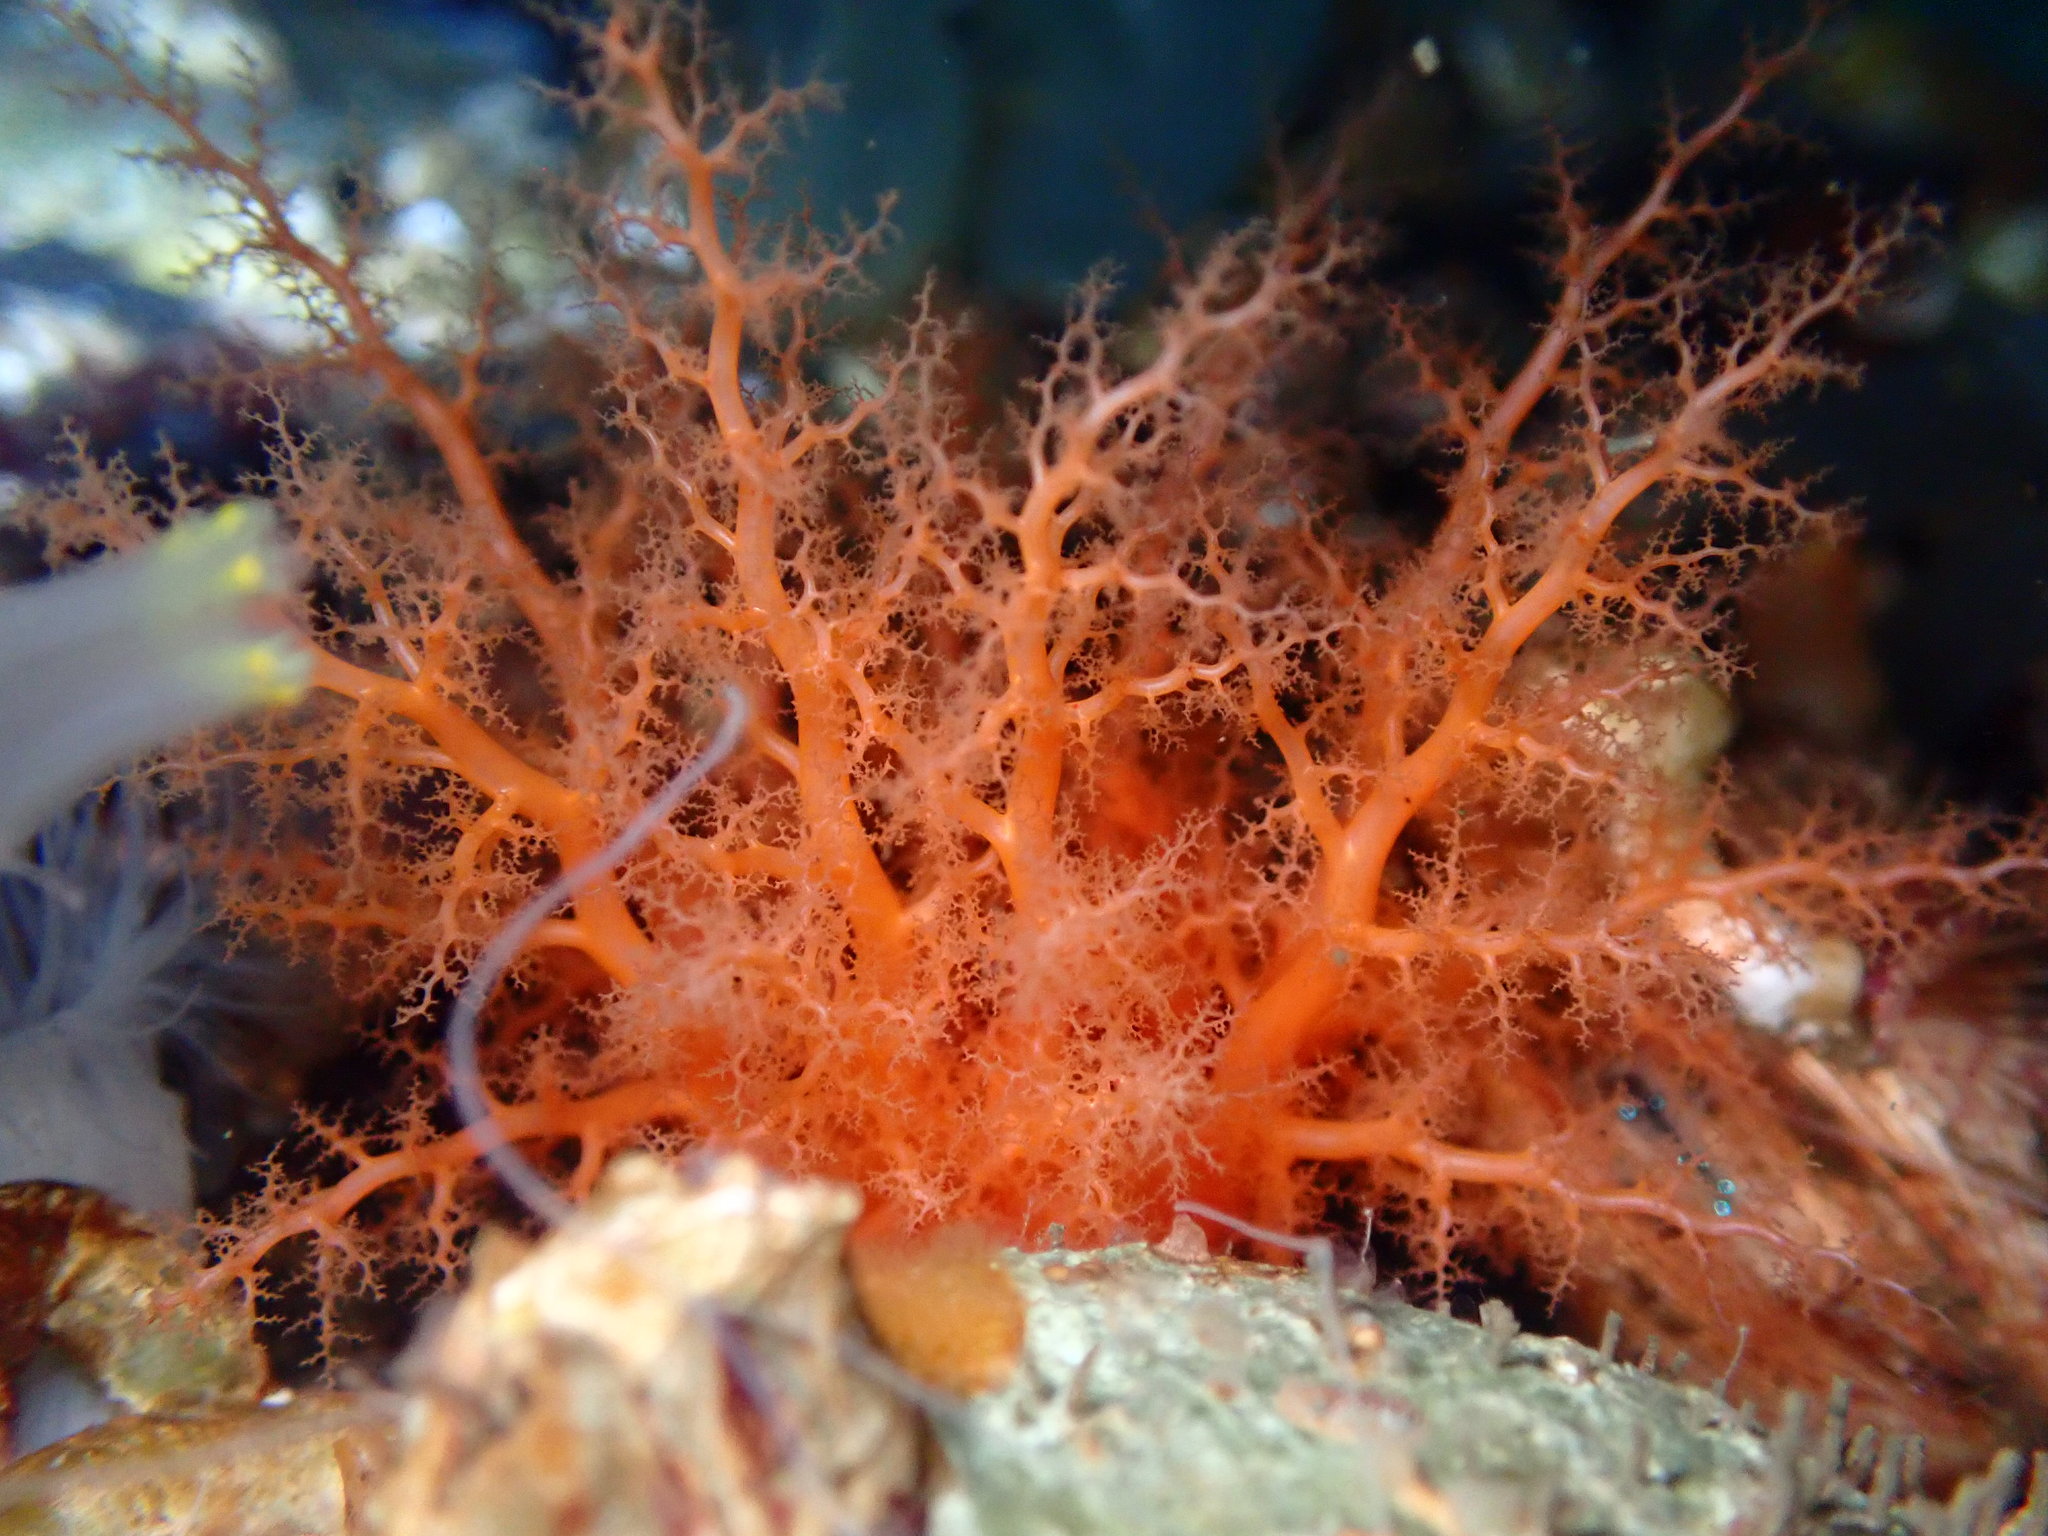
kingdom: Animalia
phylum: Echinodermata
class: Holothuroidea
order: Dendrochirotida
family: Cucumariidae
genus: Cucumaria
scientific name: Cucumaria miniata
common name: Orange sea cucumber
